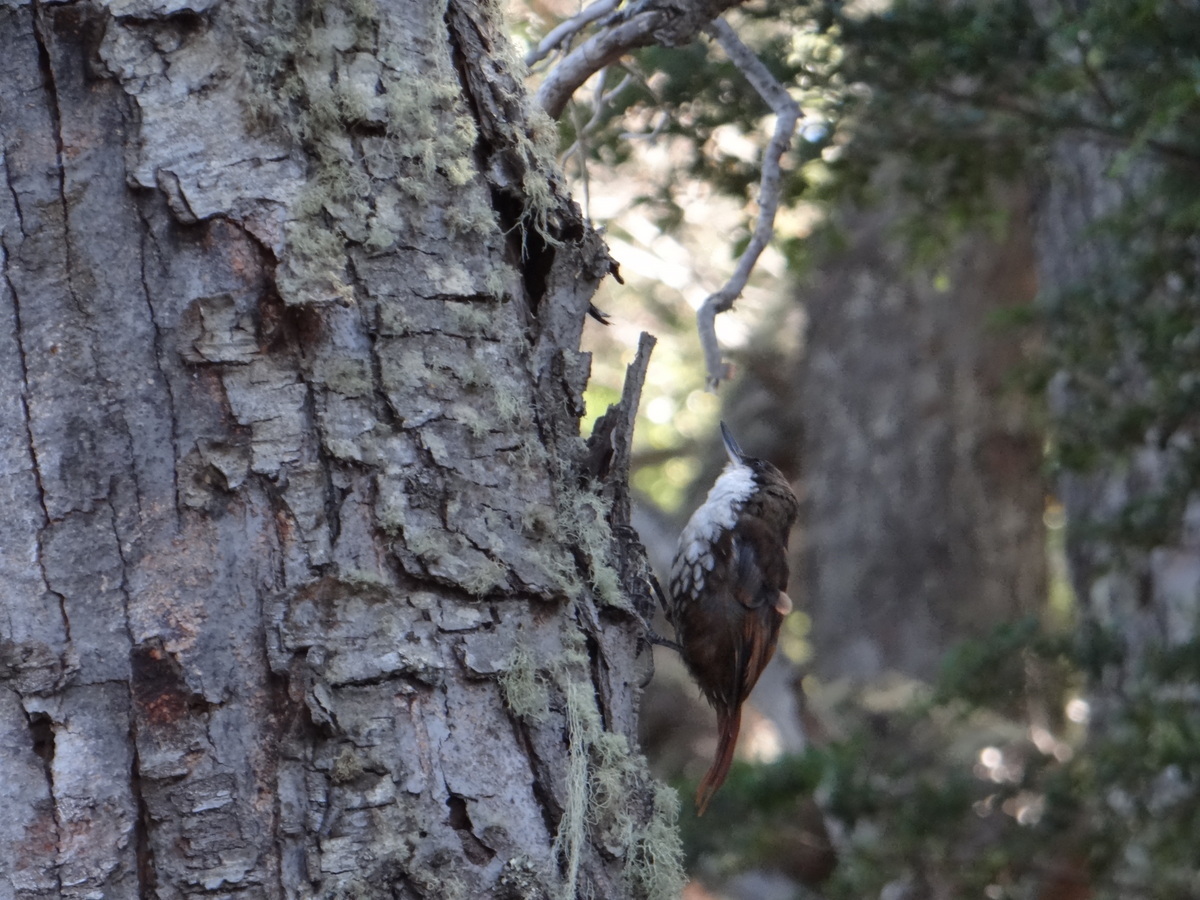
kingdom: Animalia
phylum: Chordata
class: Aves
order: Passeriformes
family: Furnariidae
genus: Pygarrhichas
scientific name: Pygarrhichas albogularis
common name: White-throated treerunner
